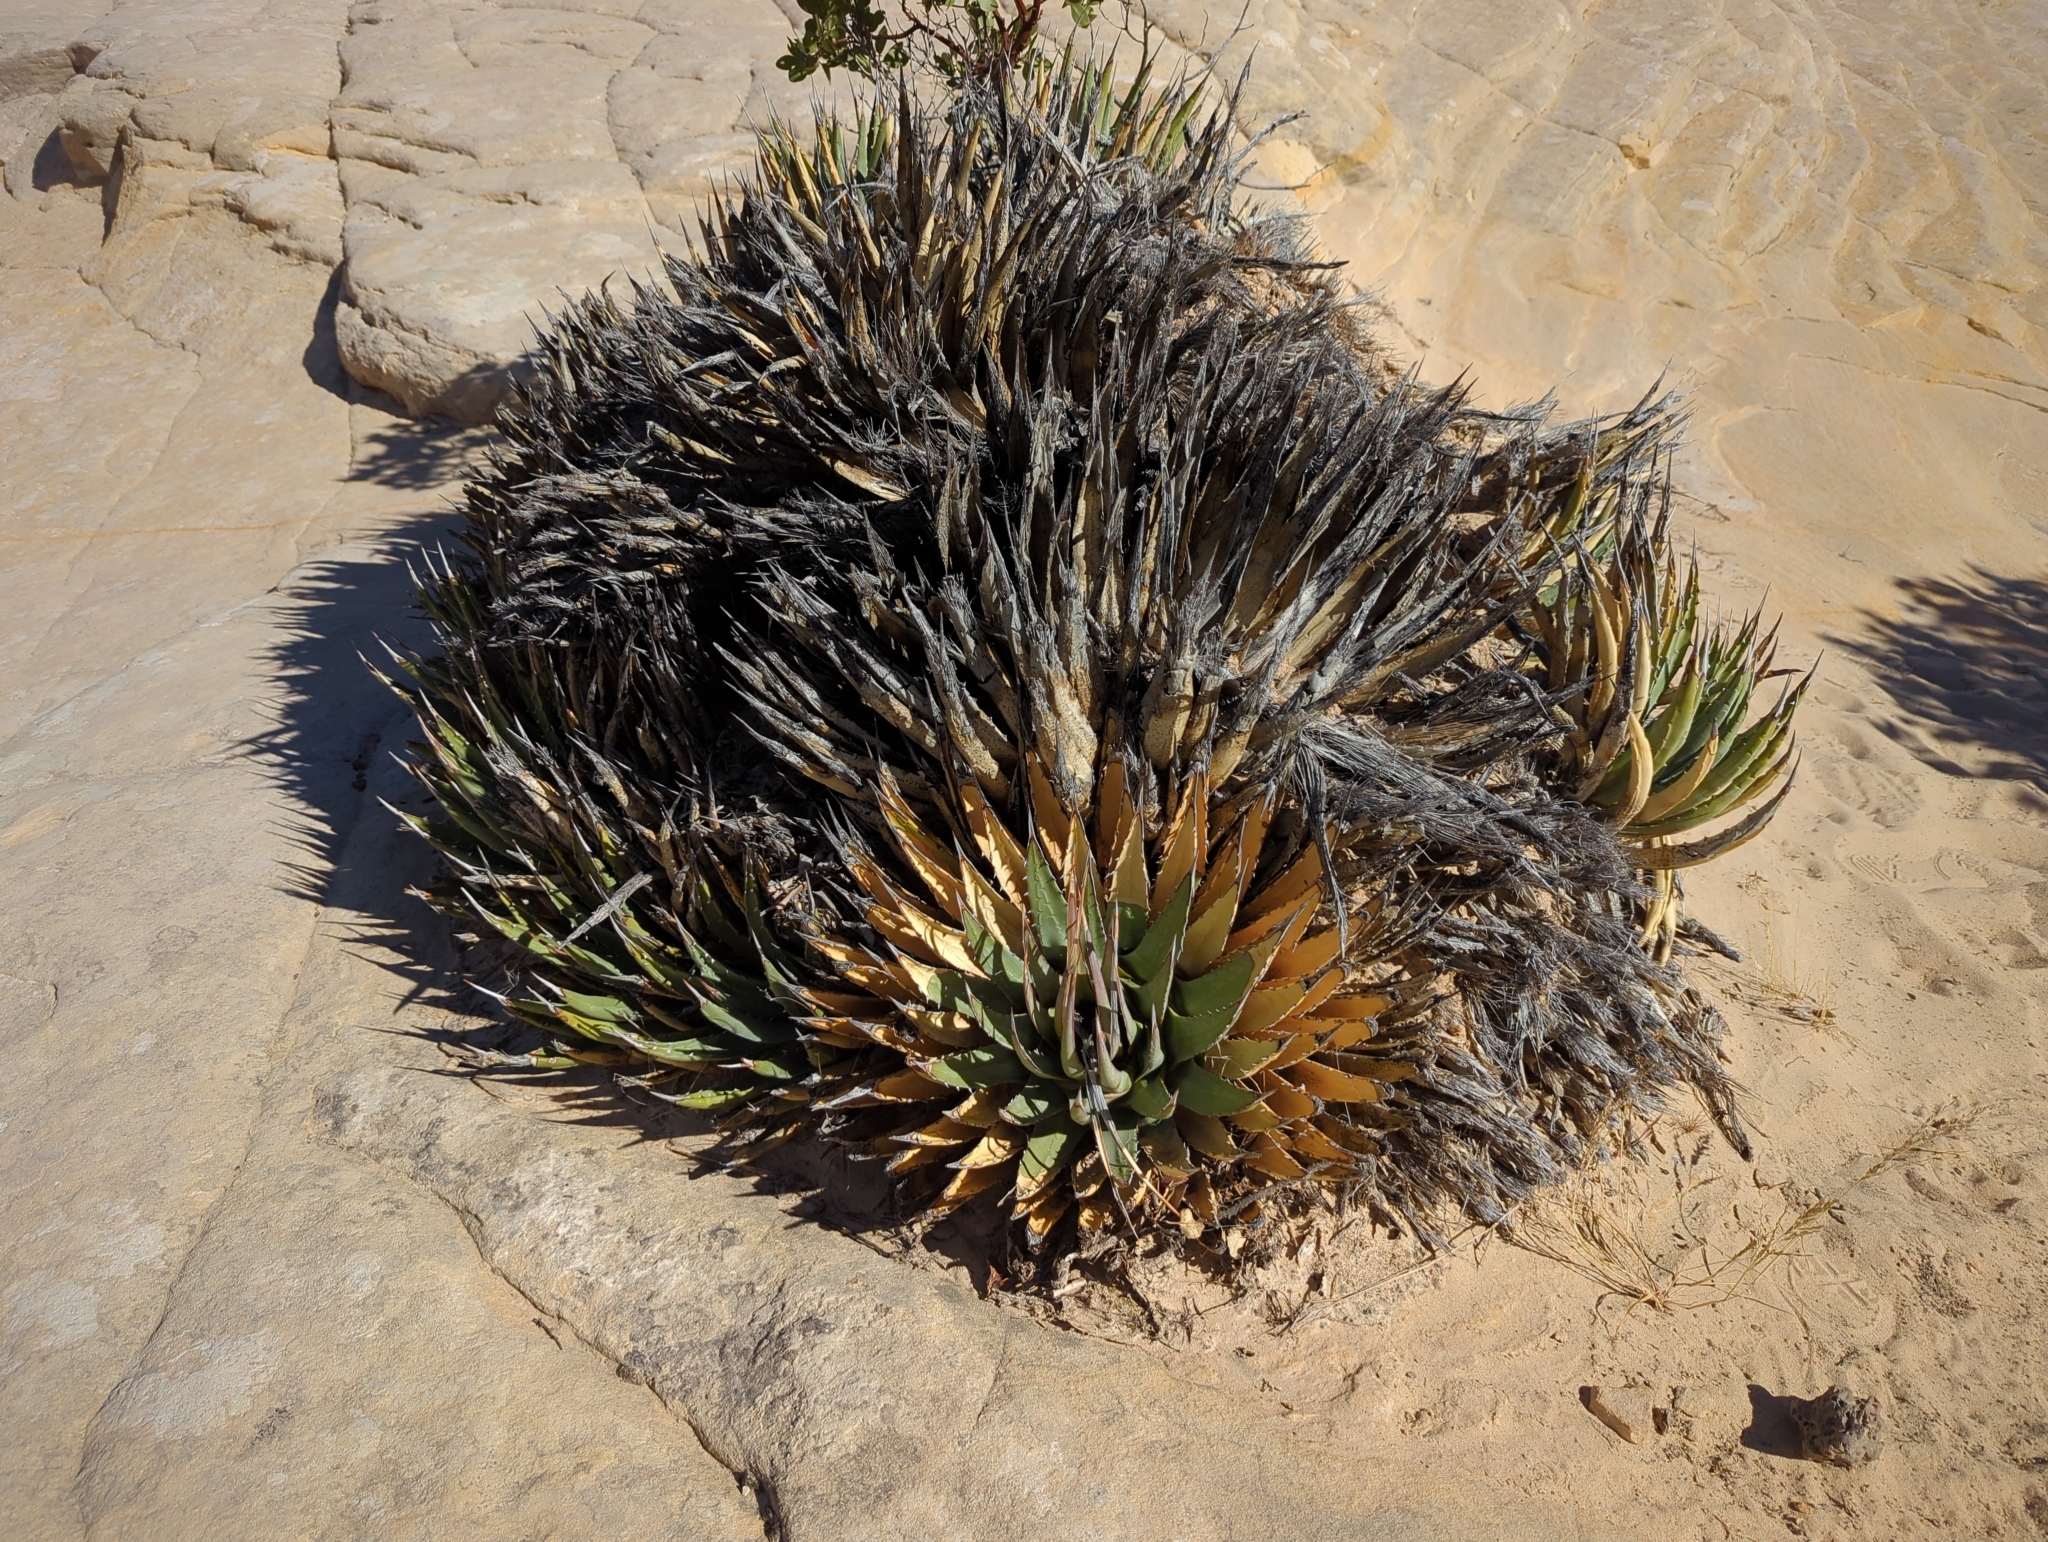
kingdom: Plantae
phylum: Tracheophyta
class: Liliopsida
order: Asparagales
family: Asparagaceae
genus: Agave
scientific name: Agave utahensis
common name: Utah agave
